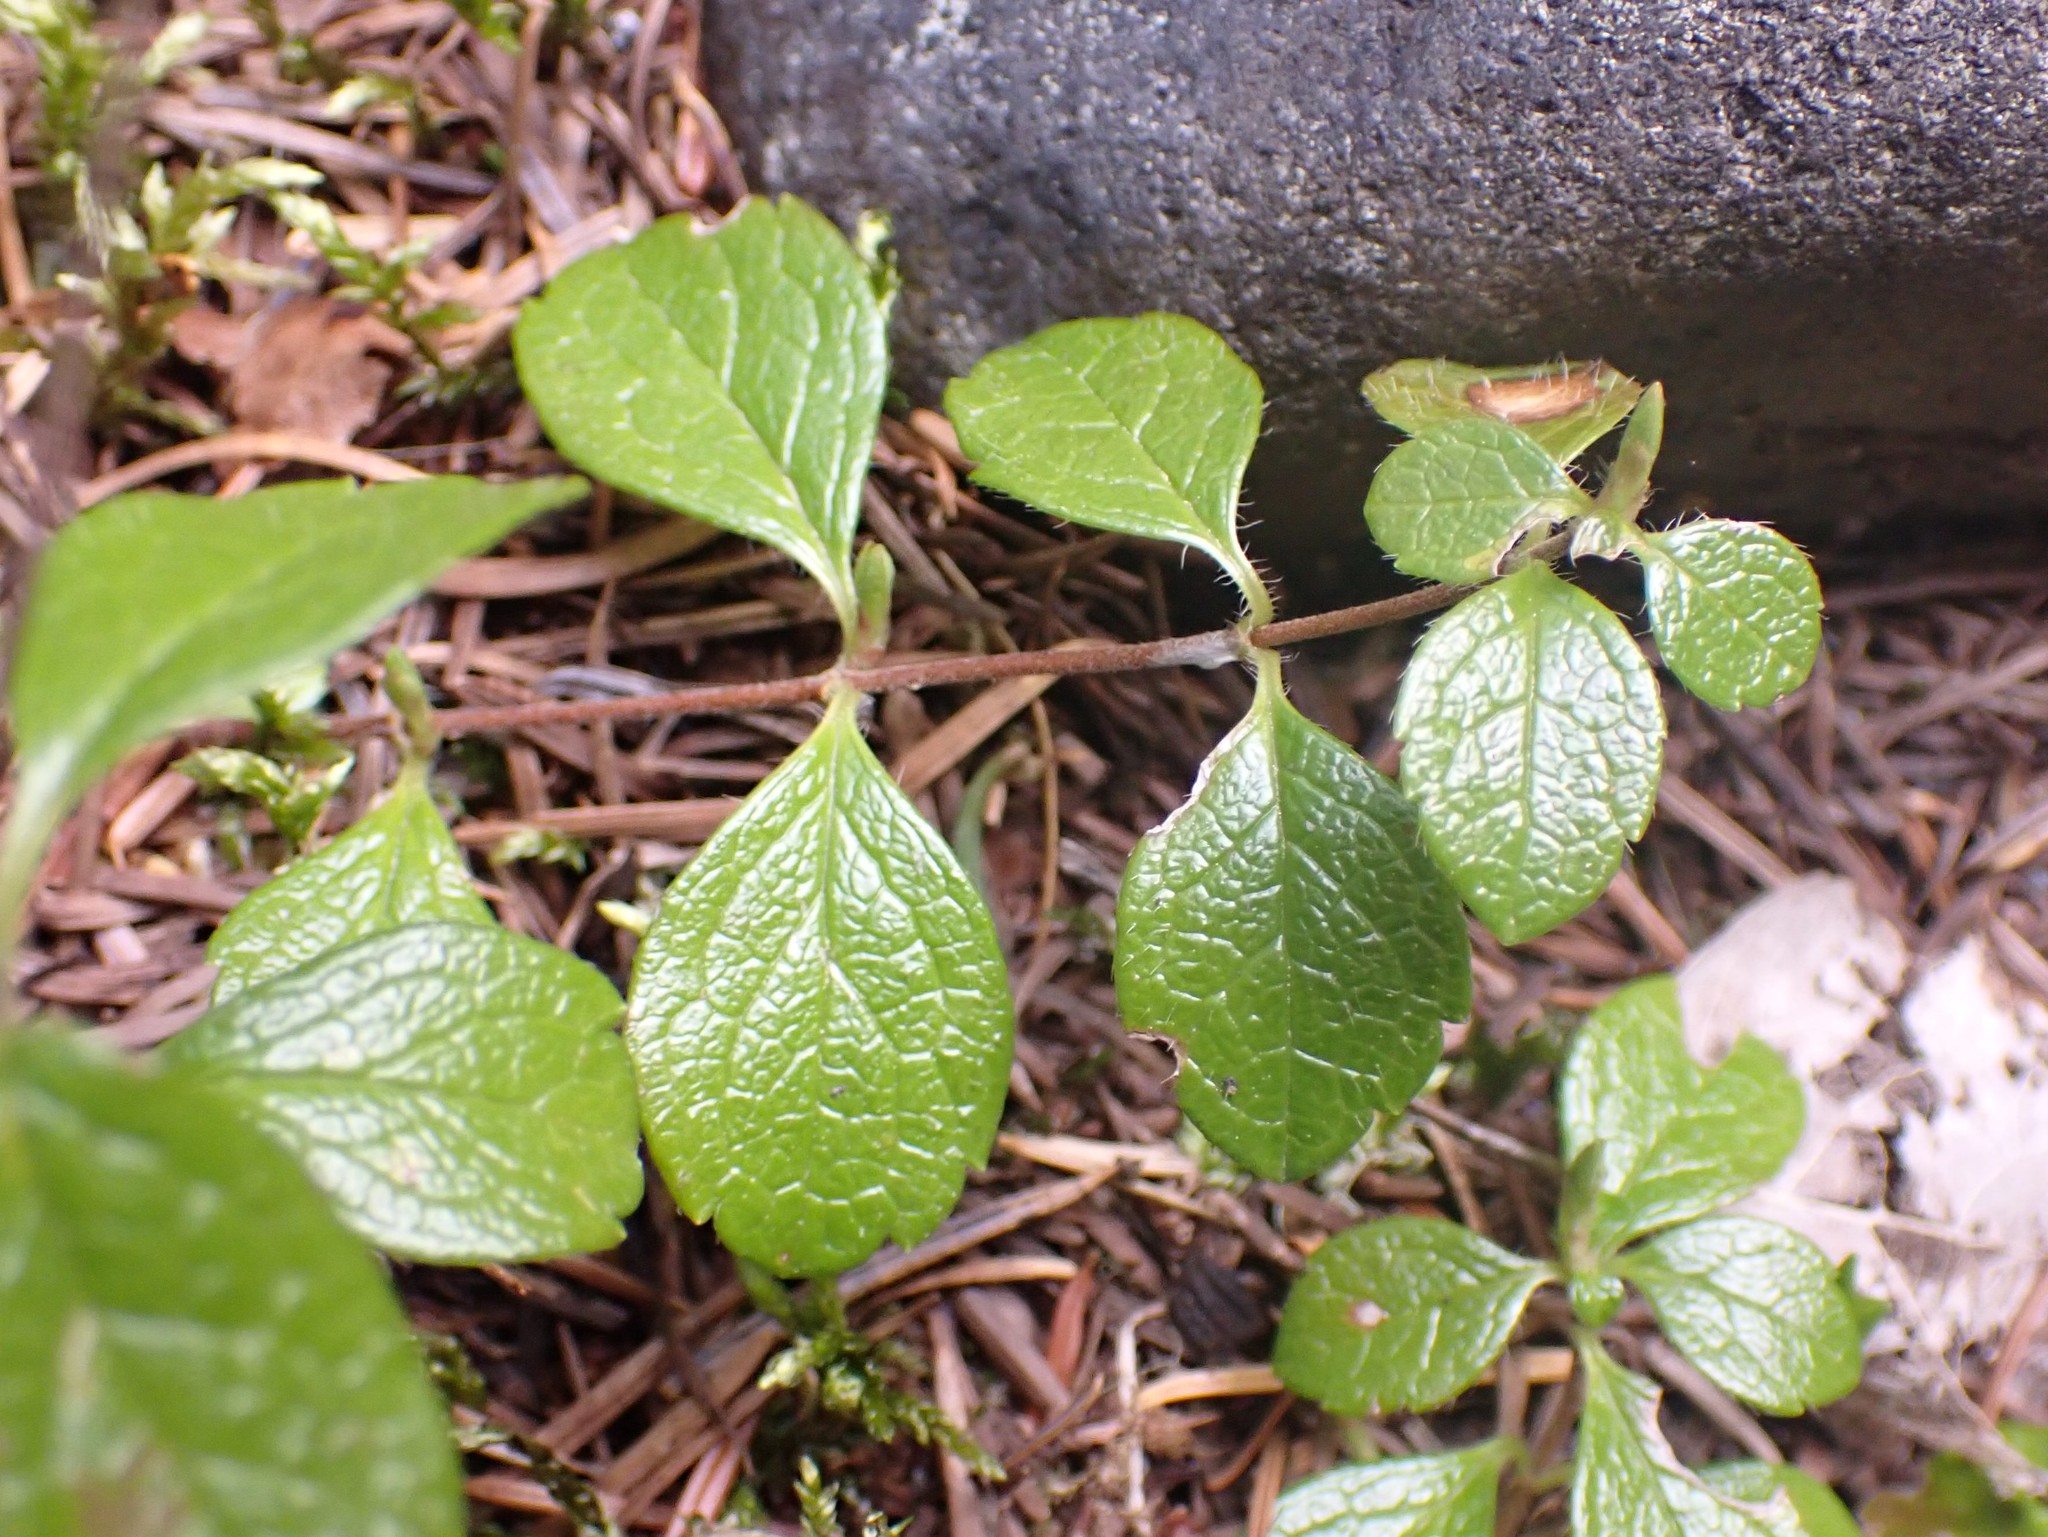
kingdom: Plantae
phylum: Tracheophyta
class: Magnoliopsida
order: Dipsacales
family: Caprifoliaceae
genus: Linnaea
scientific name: Linnaea borealis
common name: Twinflower
